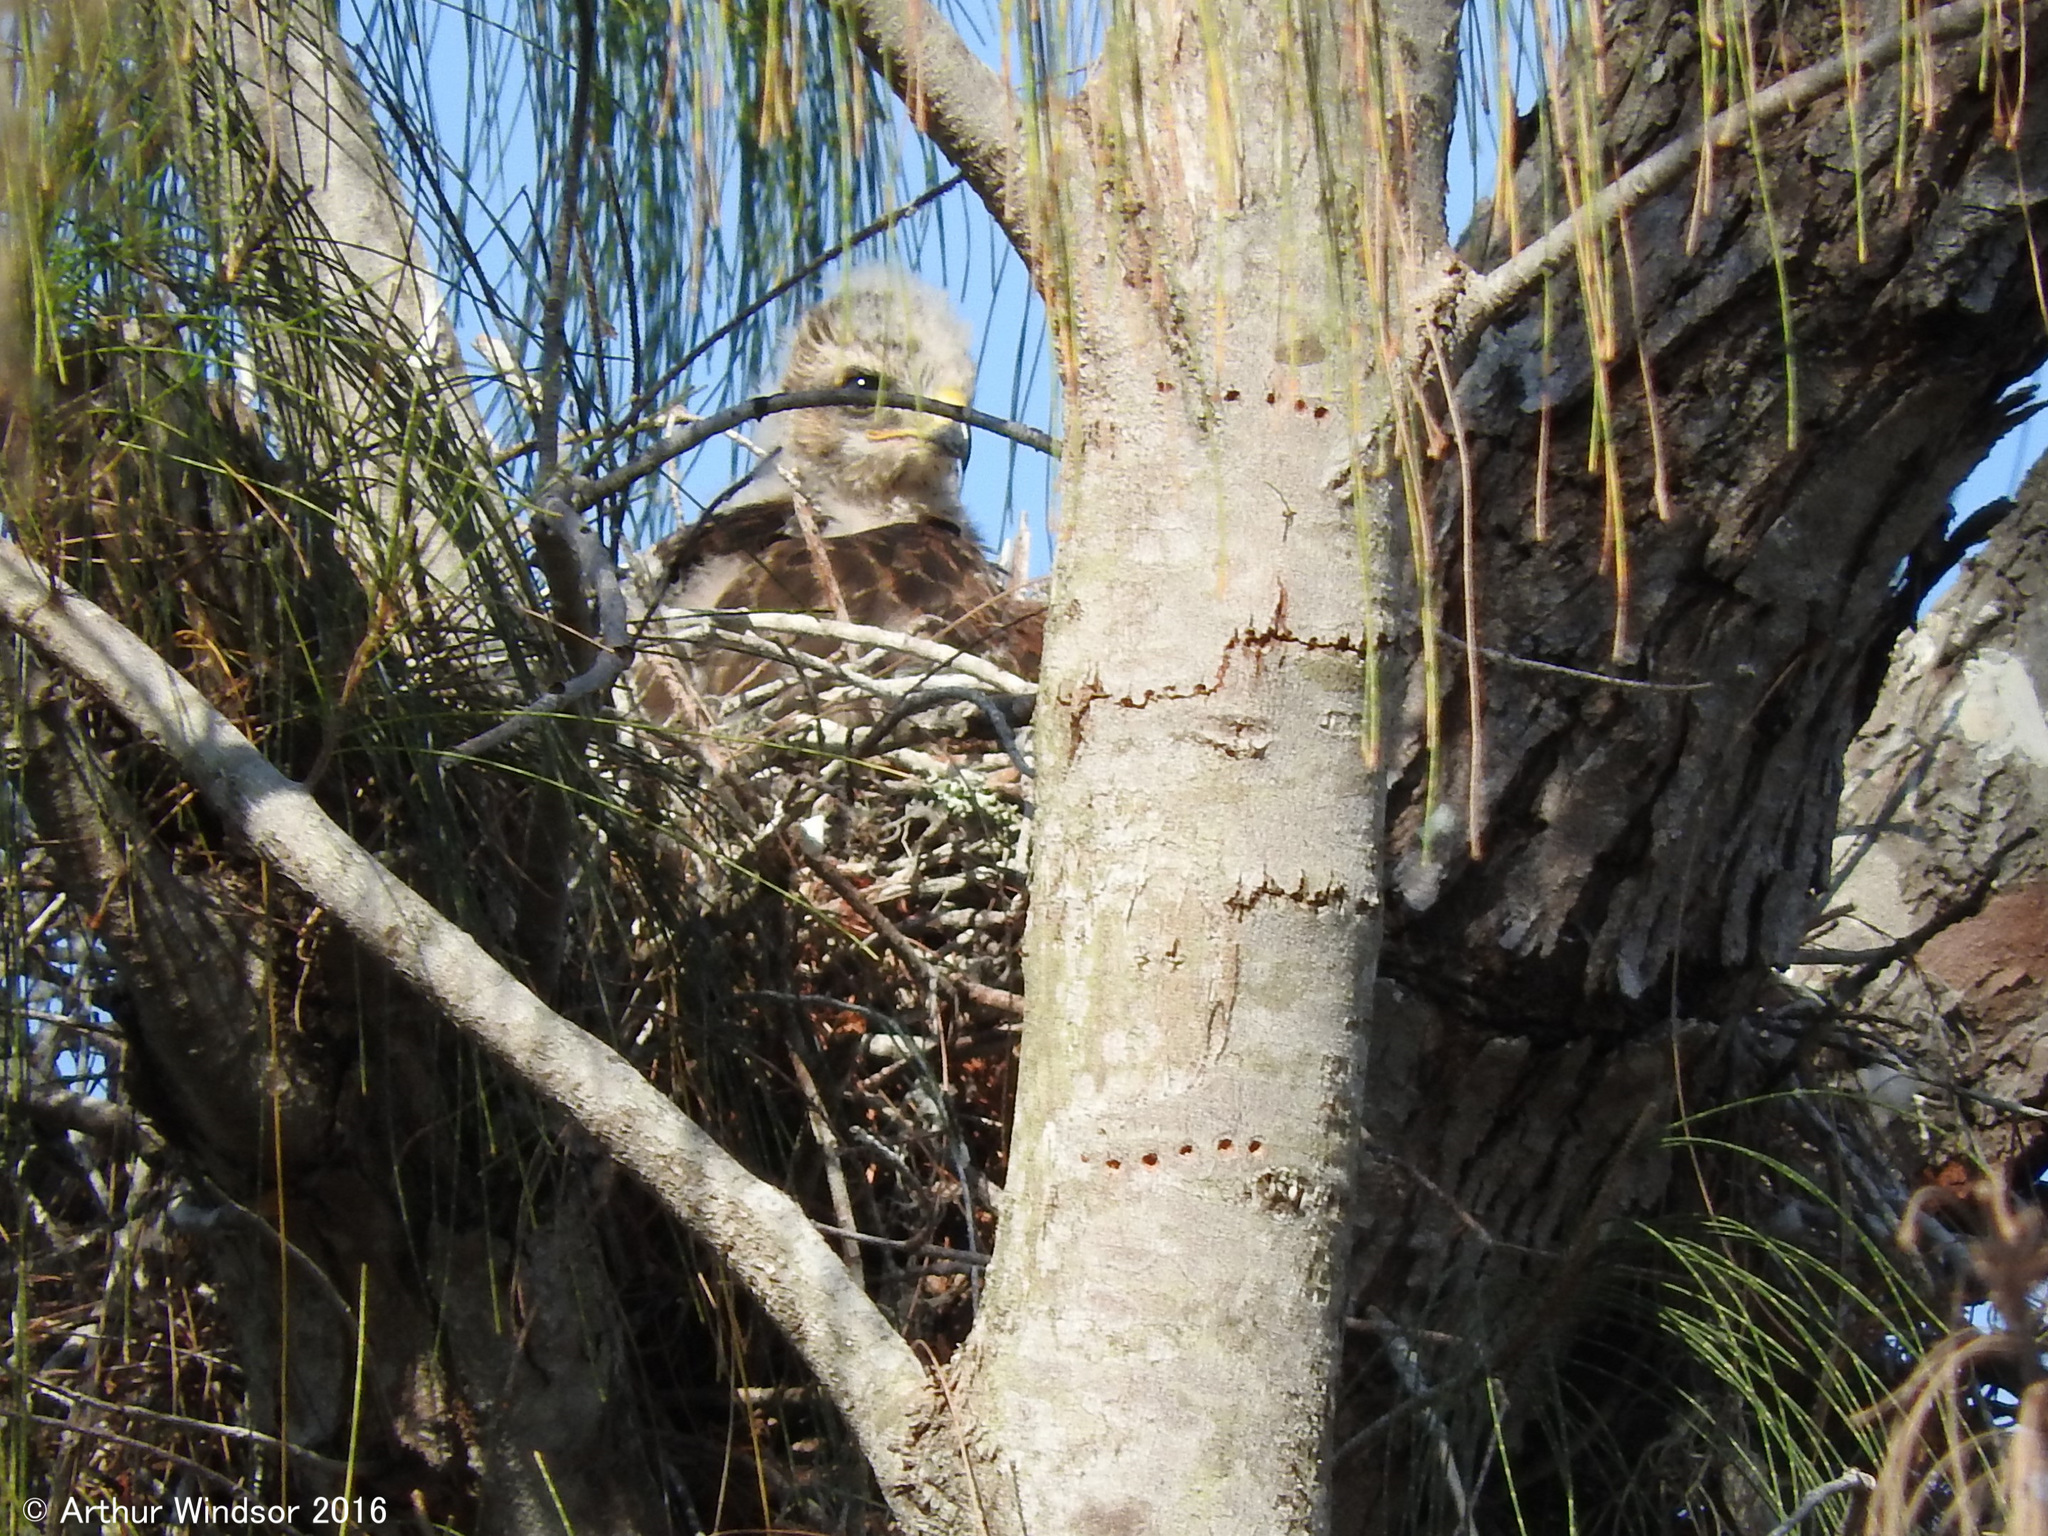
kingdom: Animalia
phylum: Chordata
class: Aves
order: Accipitriformes
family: Accipitridae
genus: Buteo
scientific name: Buteo lineatus
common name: Red-shouldered hawk
